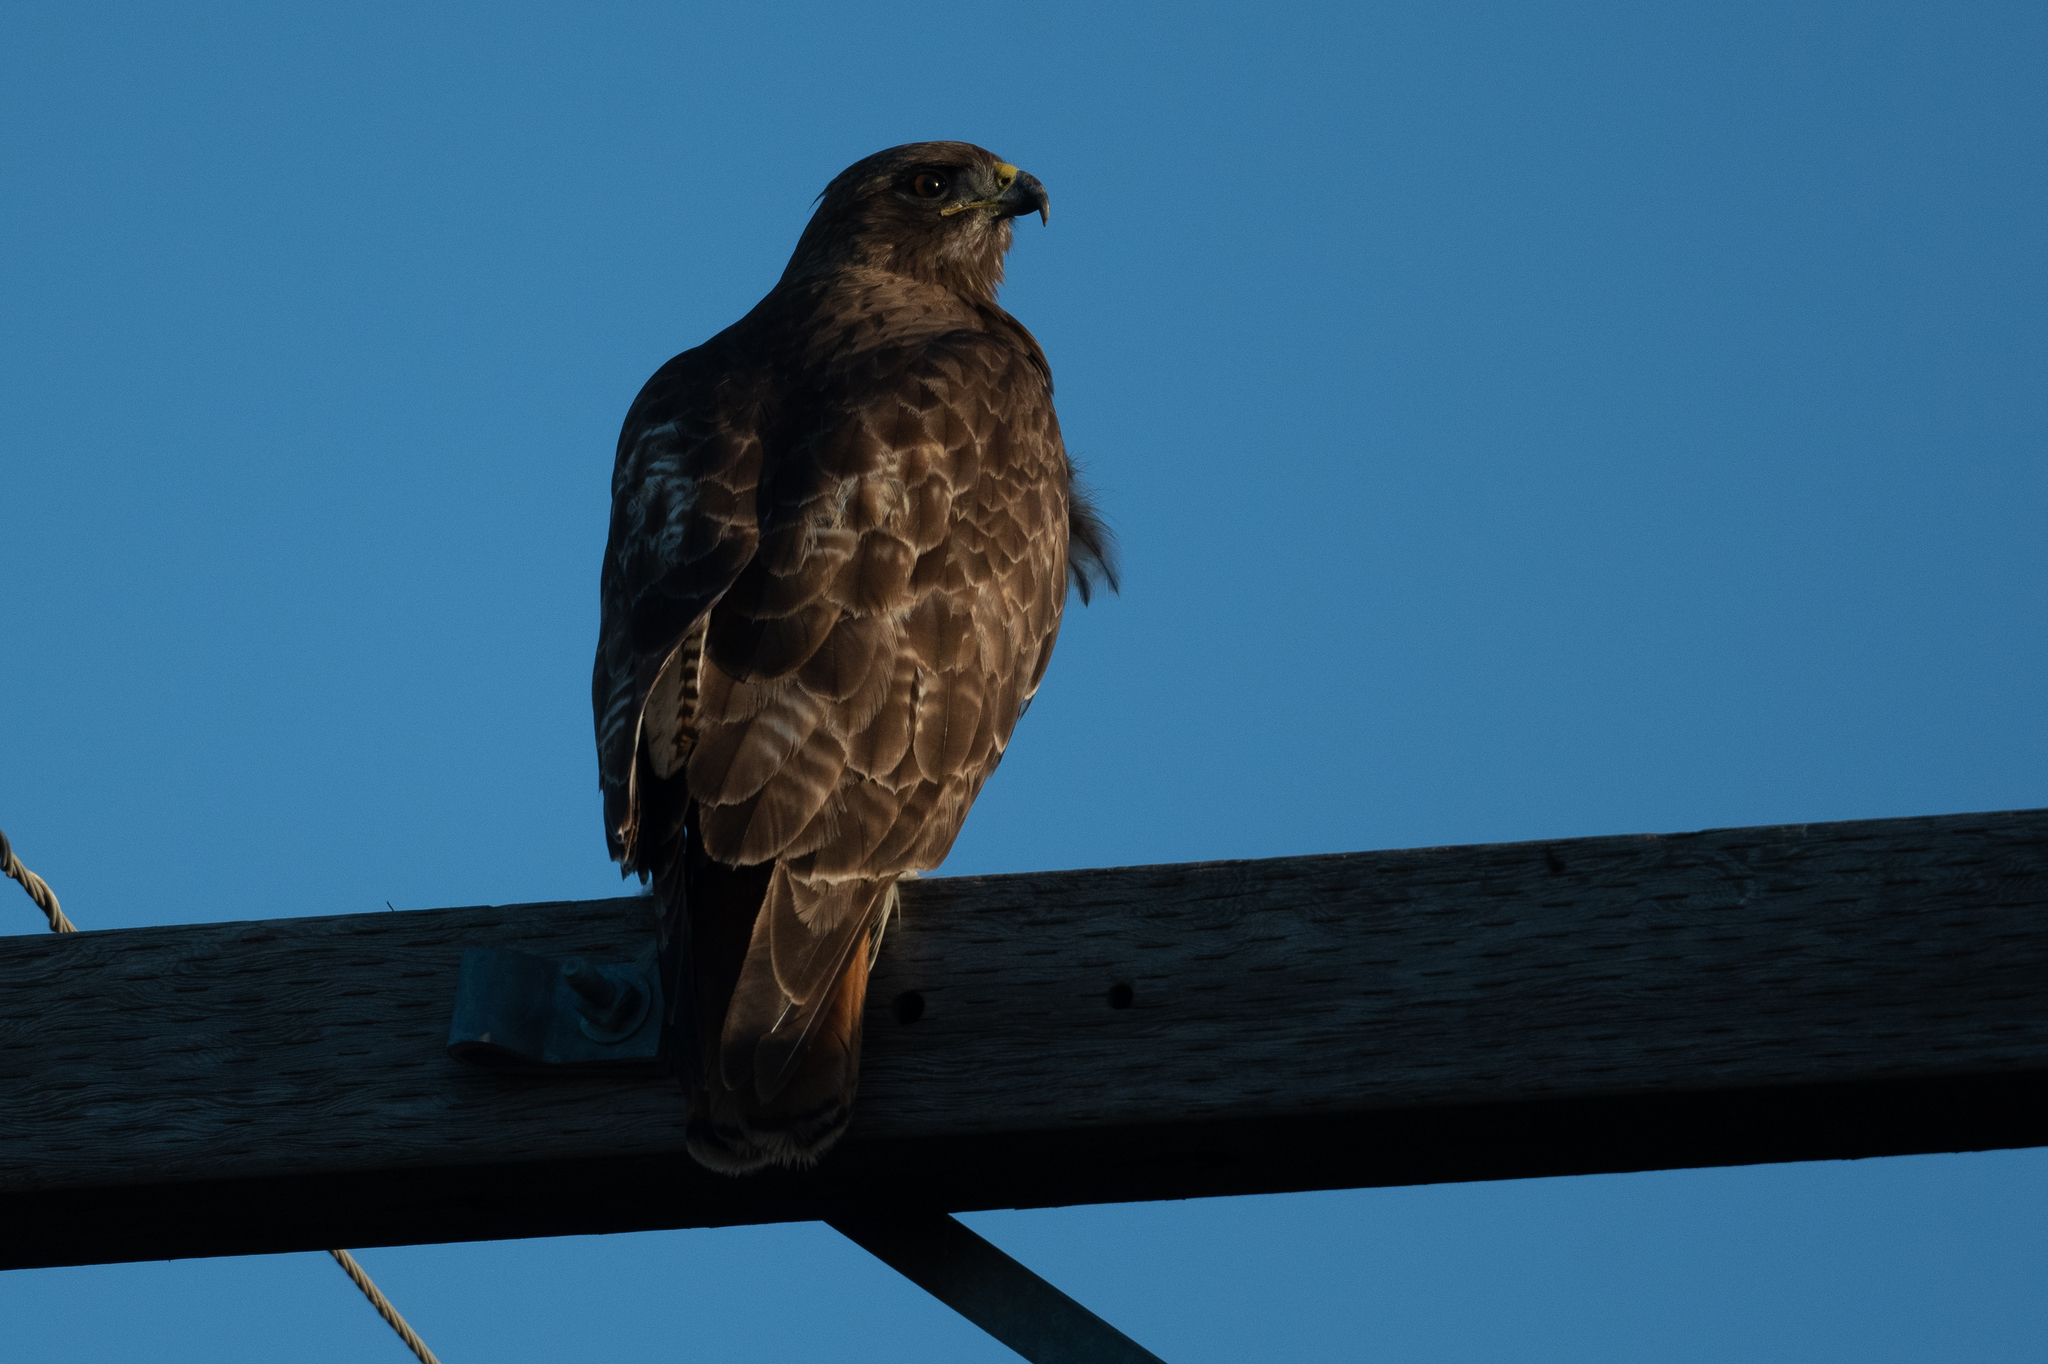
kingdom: Animalia
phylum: Chordata
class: Aves
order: Accipitriformes
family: Accipitridae
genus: Buteo
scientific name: Buteo jamaicensis
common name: Red-tailed hawk
